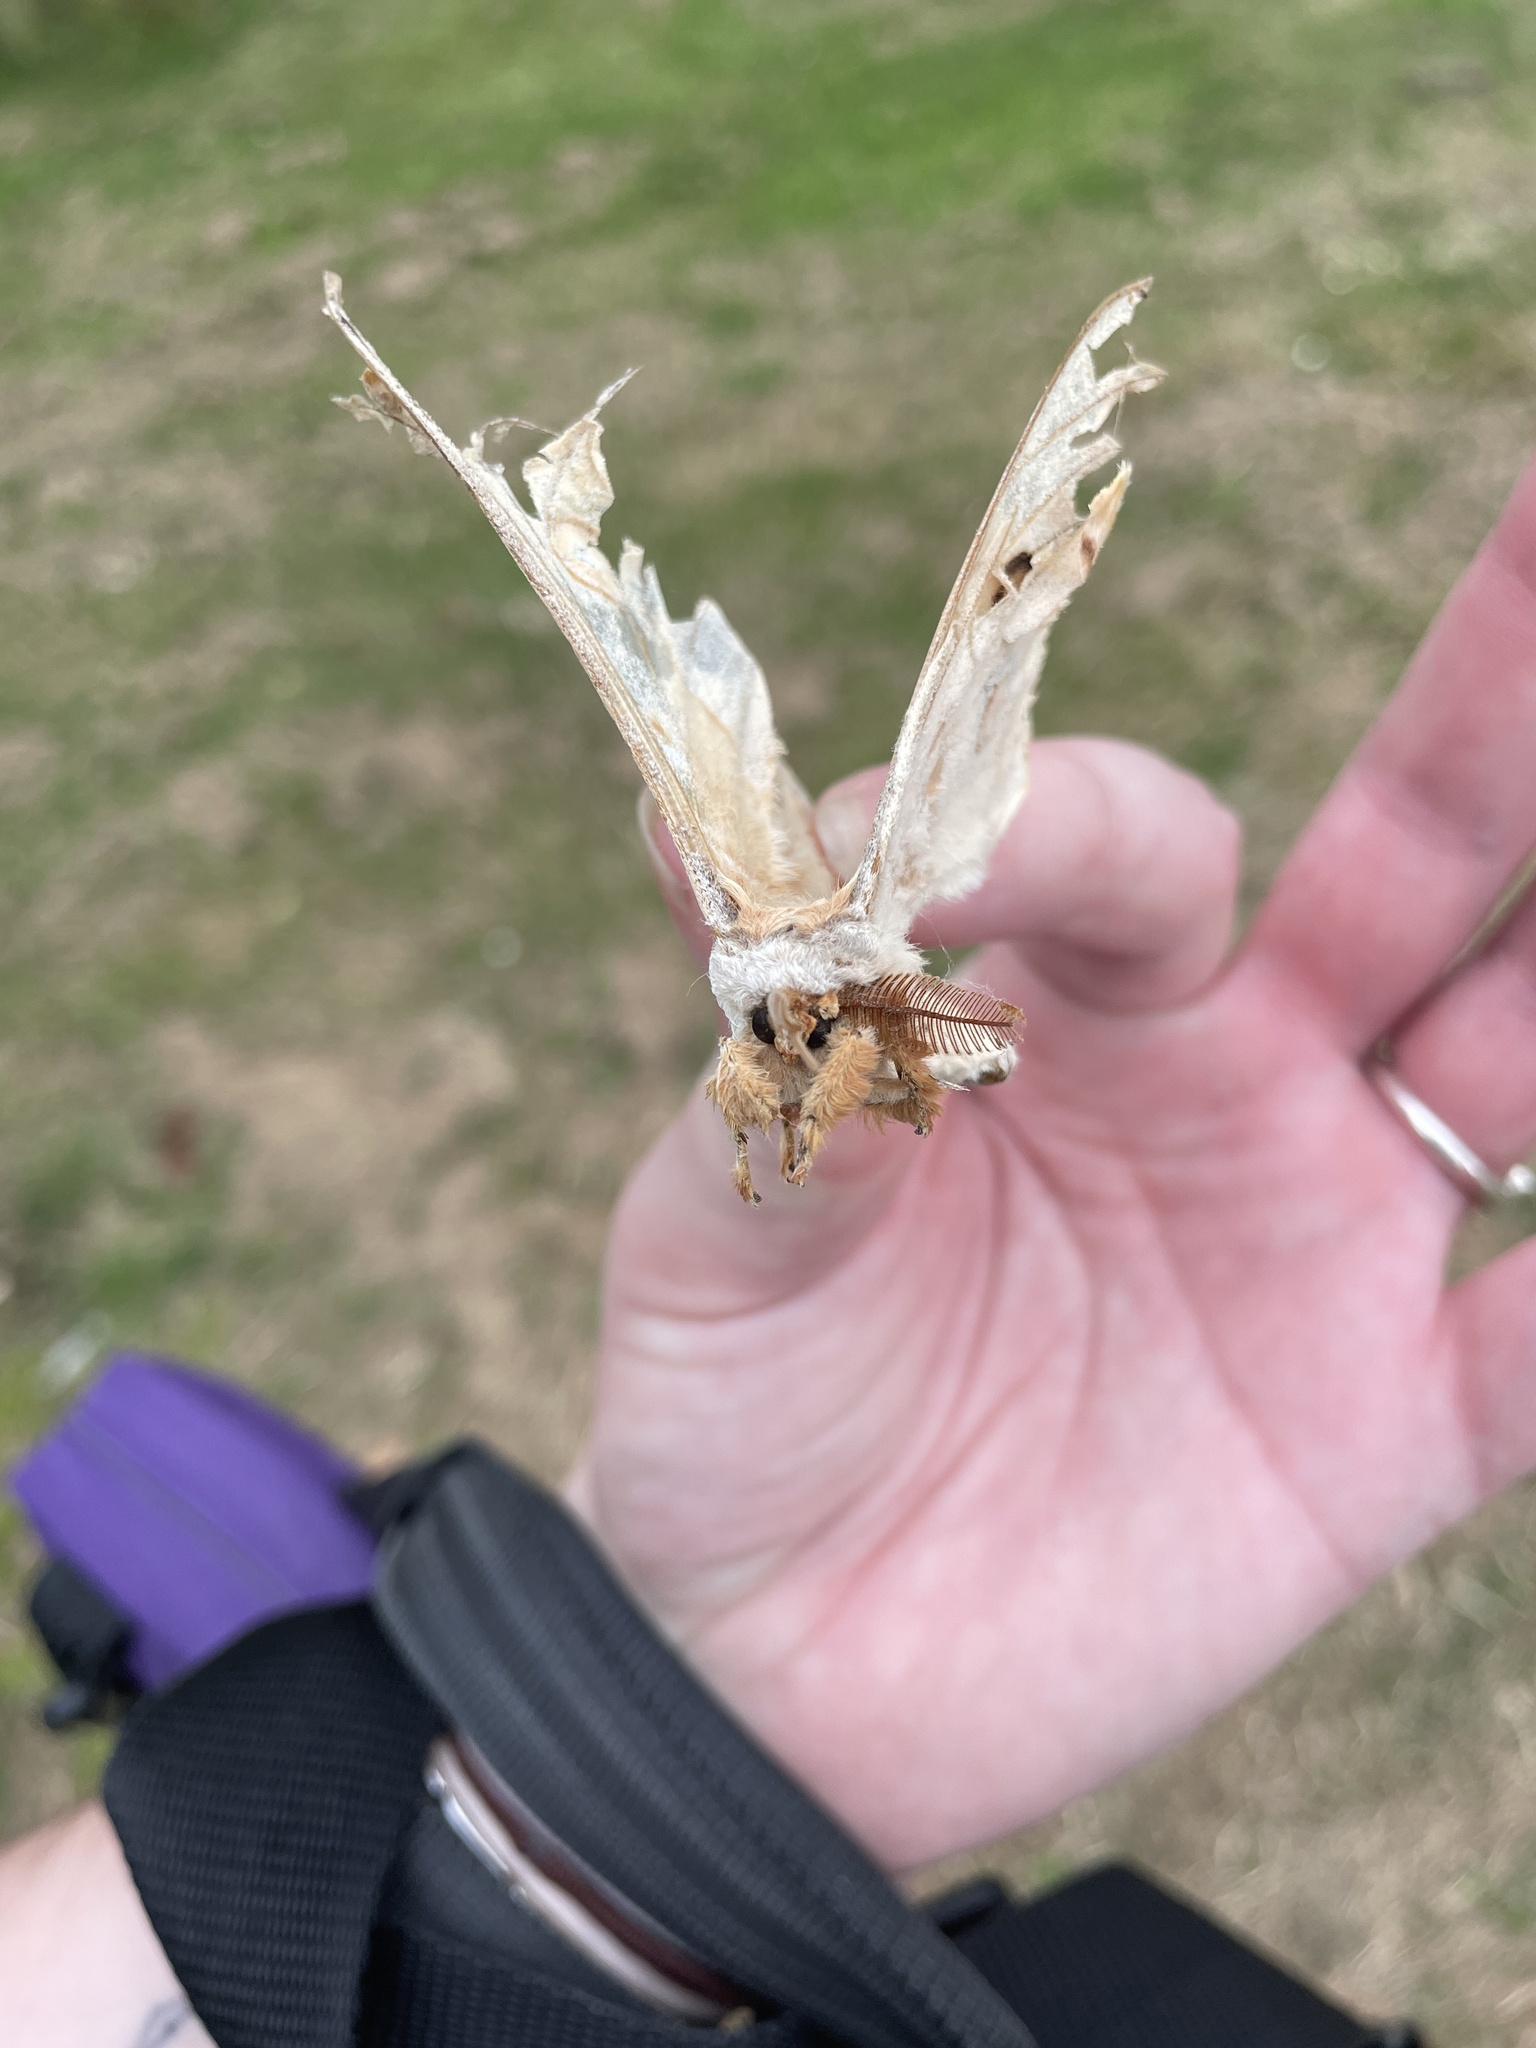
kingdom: Animalia
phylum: Arthropoda
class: Insecta
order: Lepidoptera
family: Saturniidae
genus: Opodiphthera
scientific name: Opodiphthera
